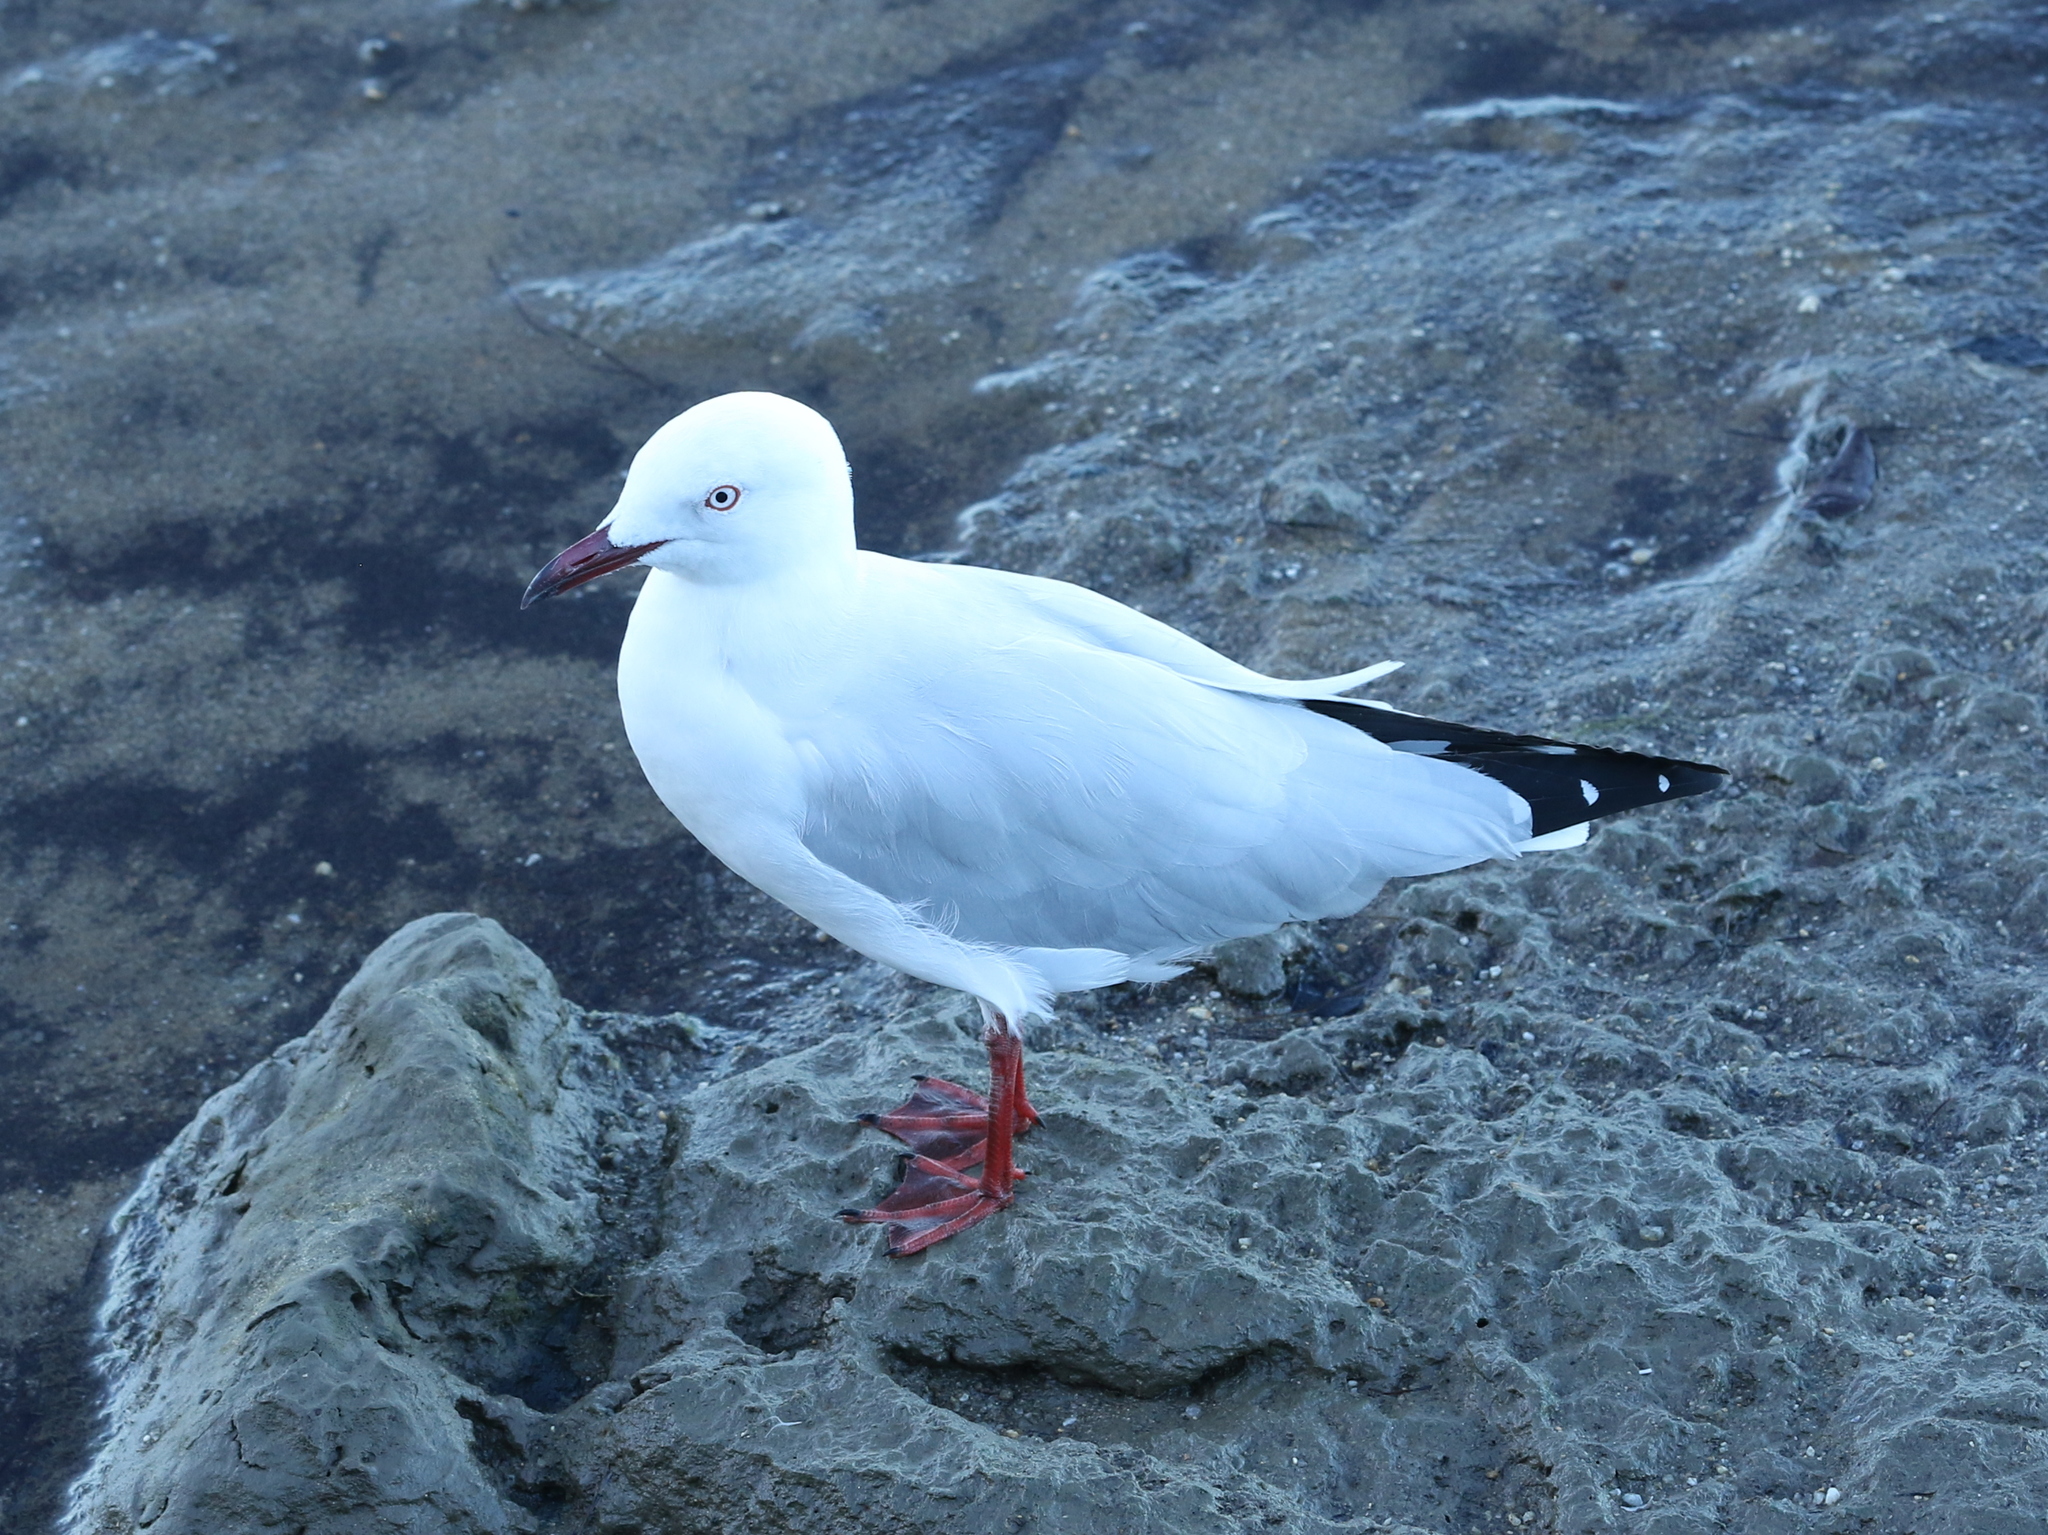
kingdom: Animalia
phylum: Chordata
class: Aves
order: Charadriiformes
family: Laridae
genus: Chroicocephalus
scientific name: Chroicocephalus novaehollandiae
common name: Silver gull
